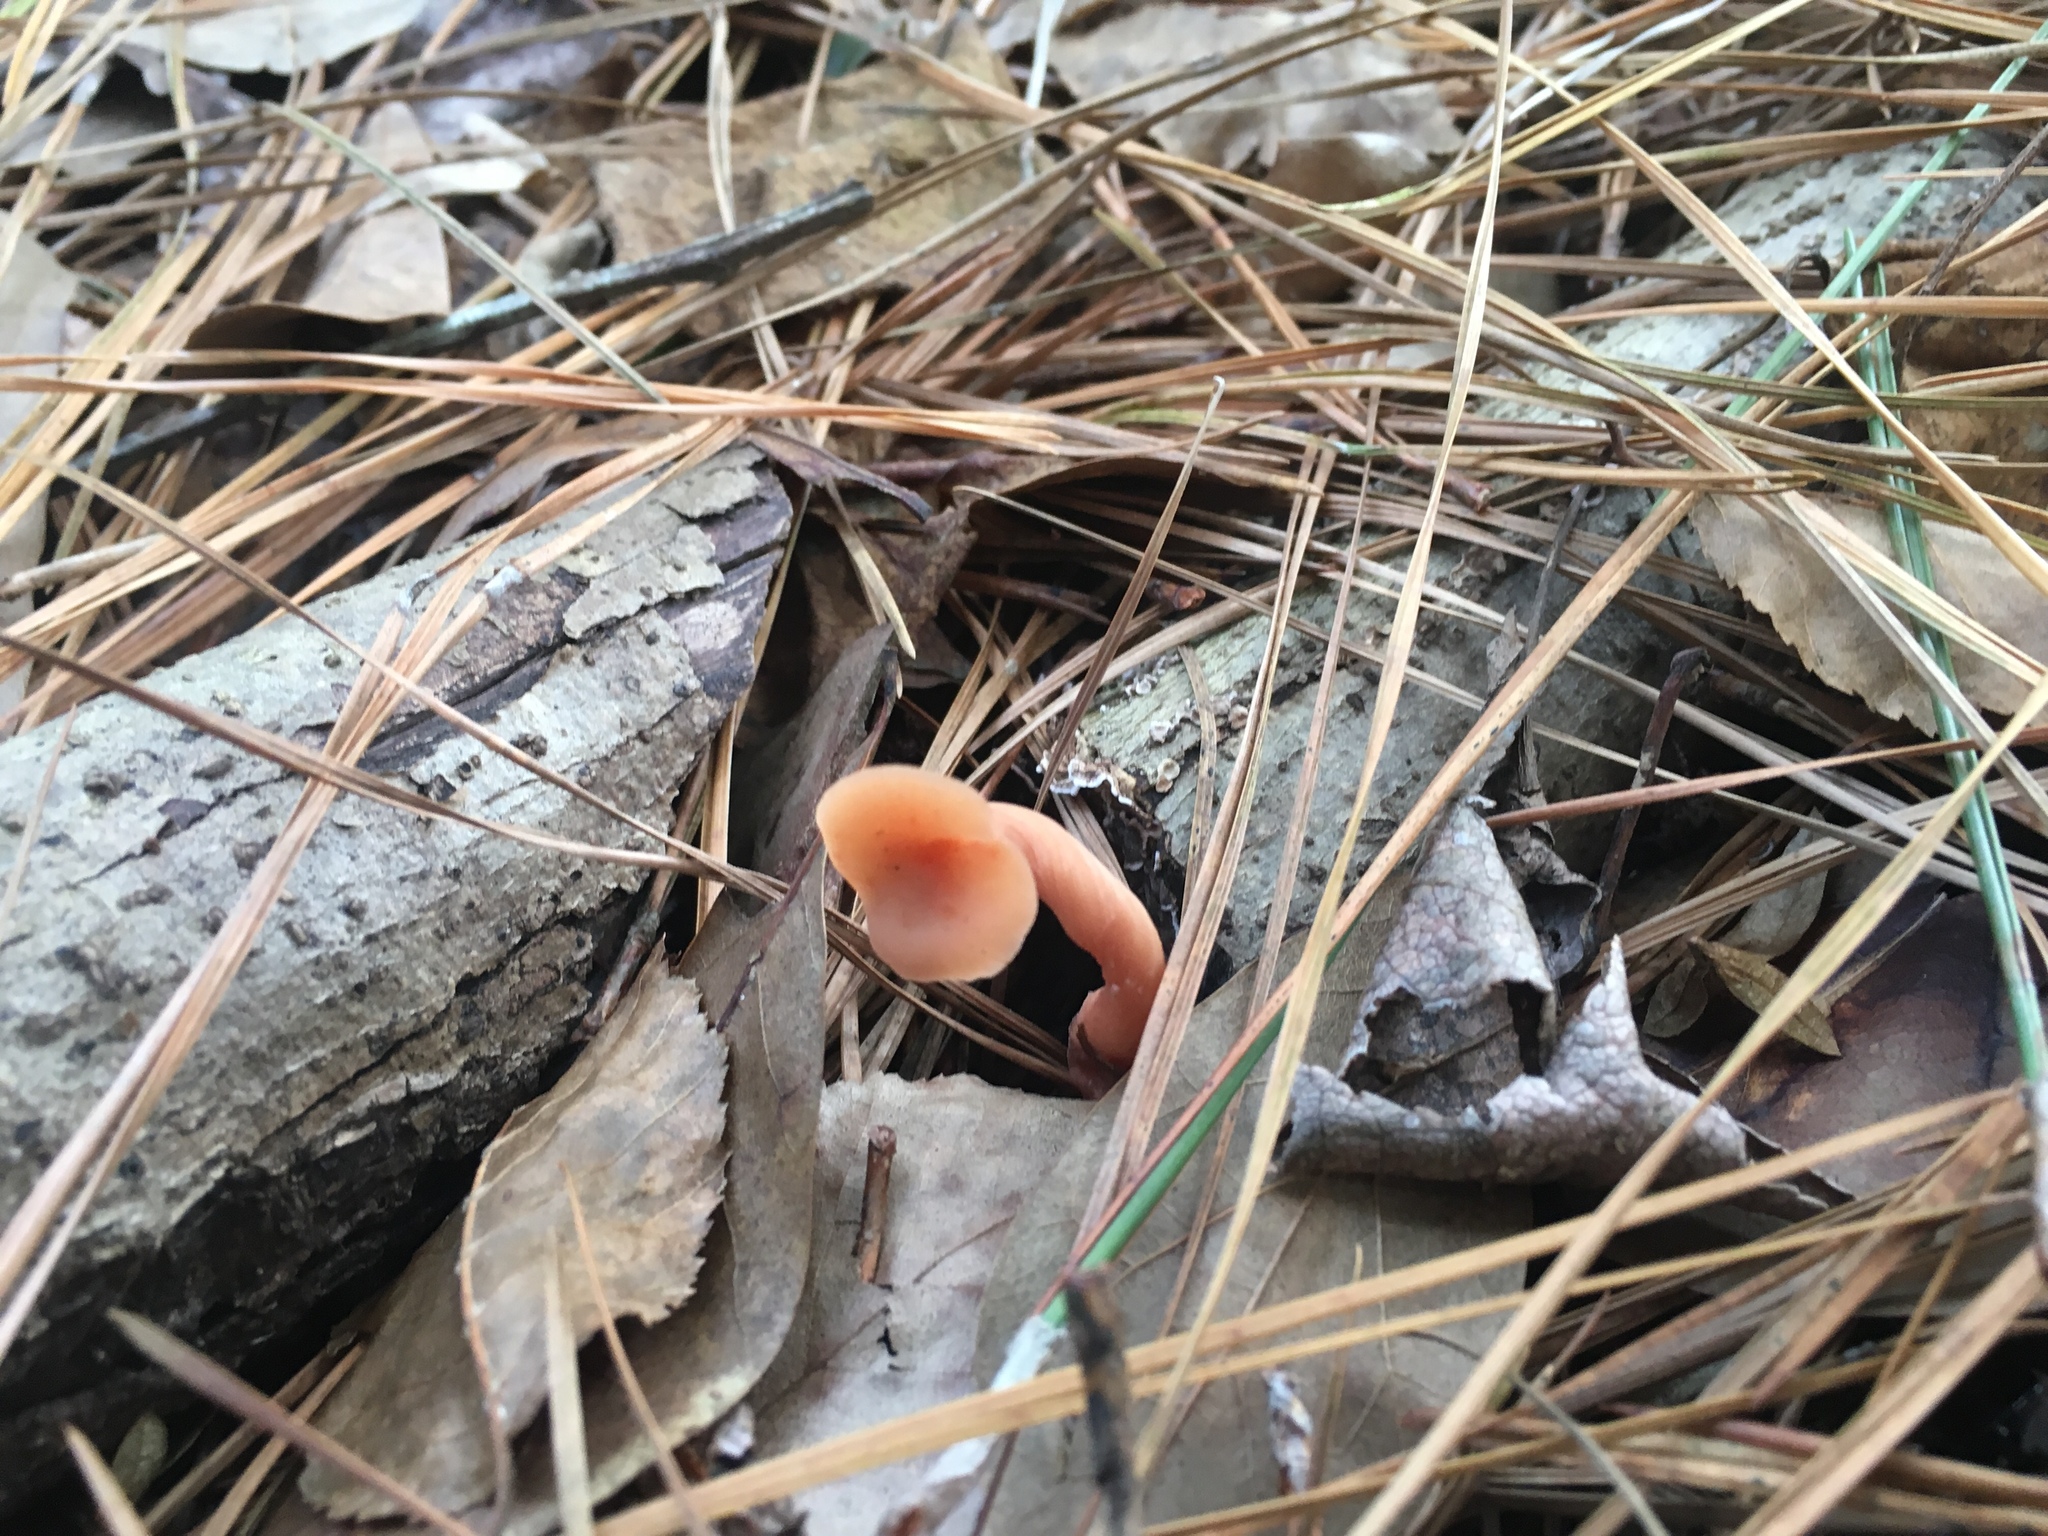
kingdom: Fungi
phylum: Basidiomycota
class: Agaricomycetes
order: Agaricales
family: Hydnangiaceae
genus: Laccaria
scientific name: Laccaria laccata
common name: Deceiver
